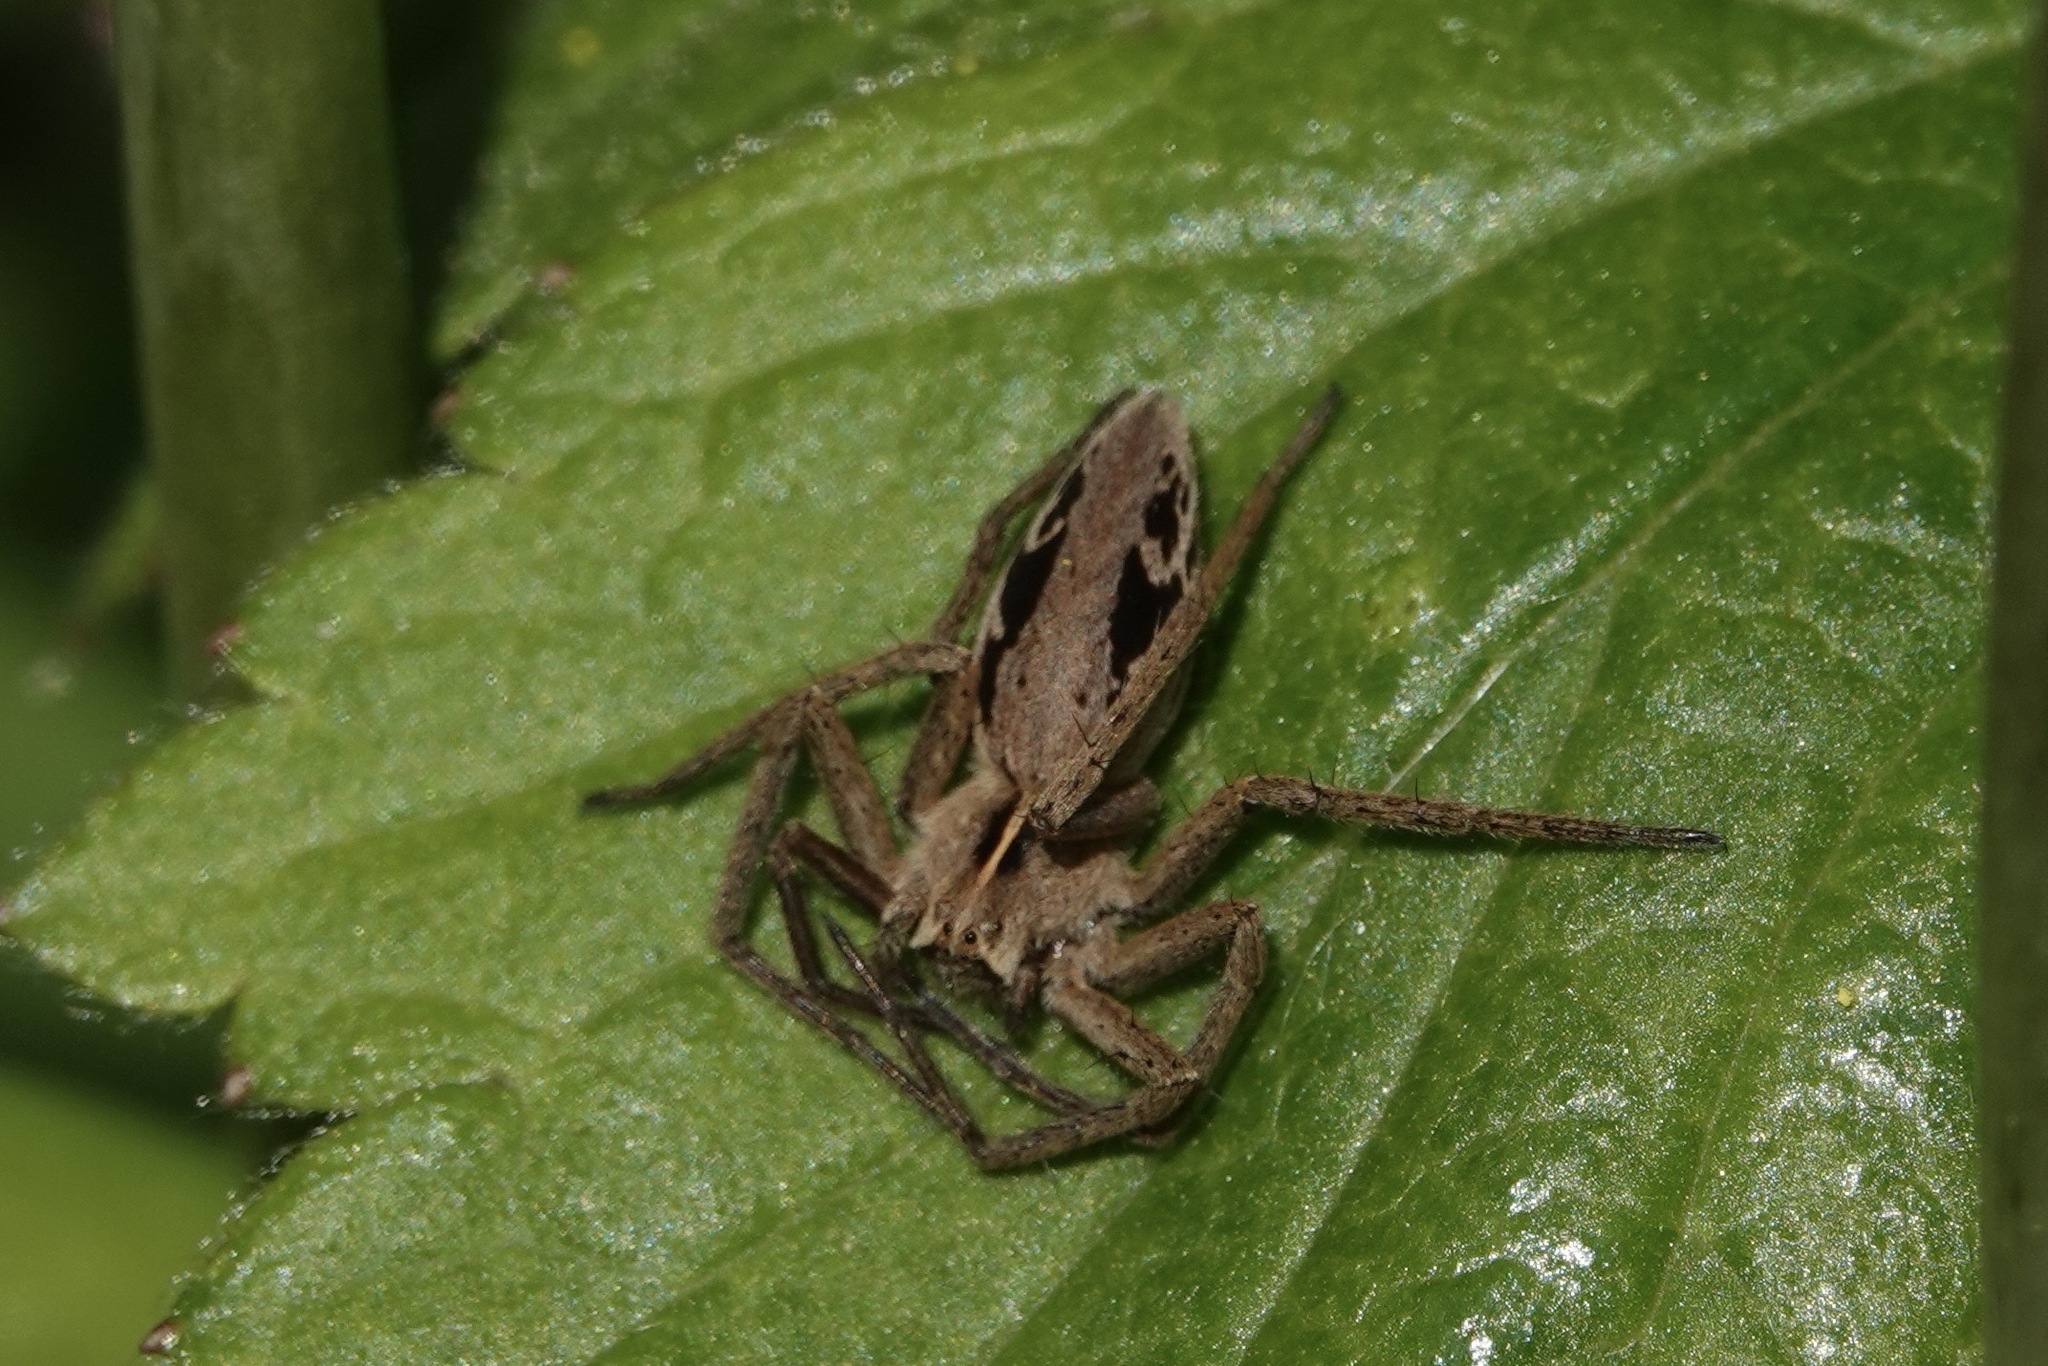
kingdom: Animalia
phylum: Arthropoda
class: Arachnida
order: Araneae
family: Pisauridae
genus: Pisaura
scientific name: Pisaura mirabilis
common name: Tent spider
